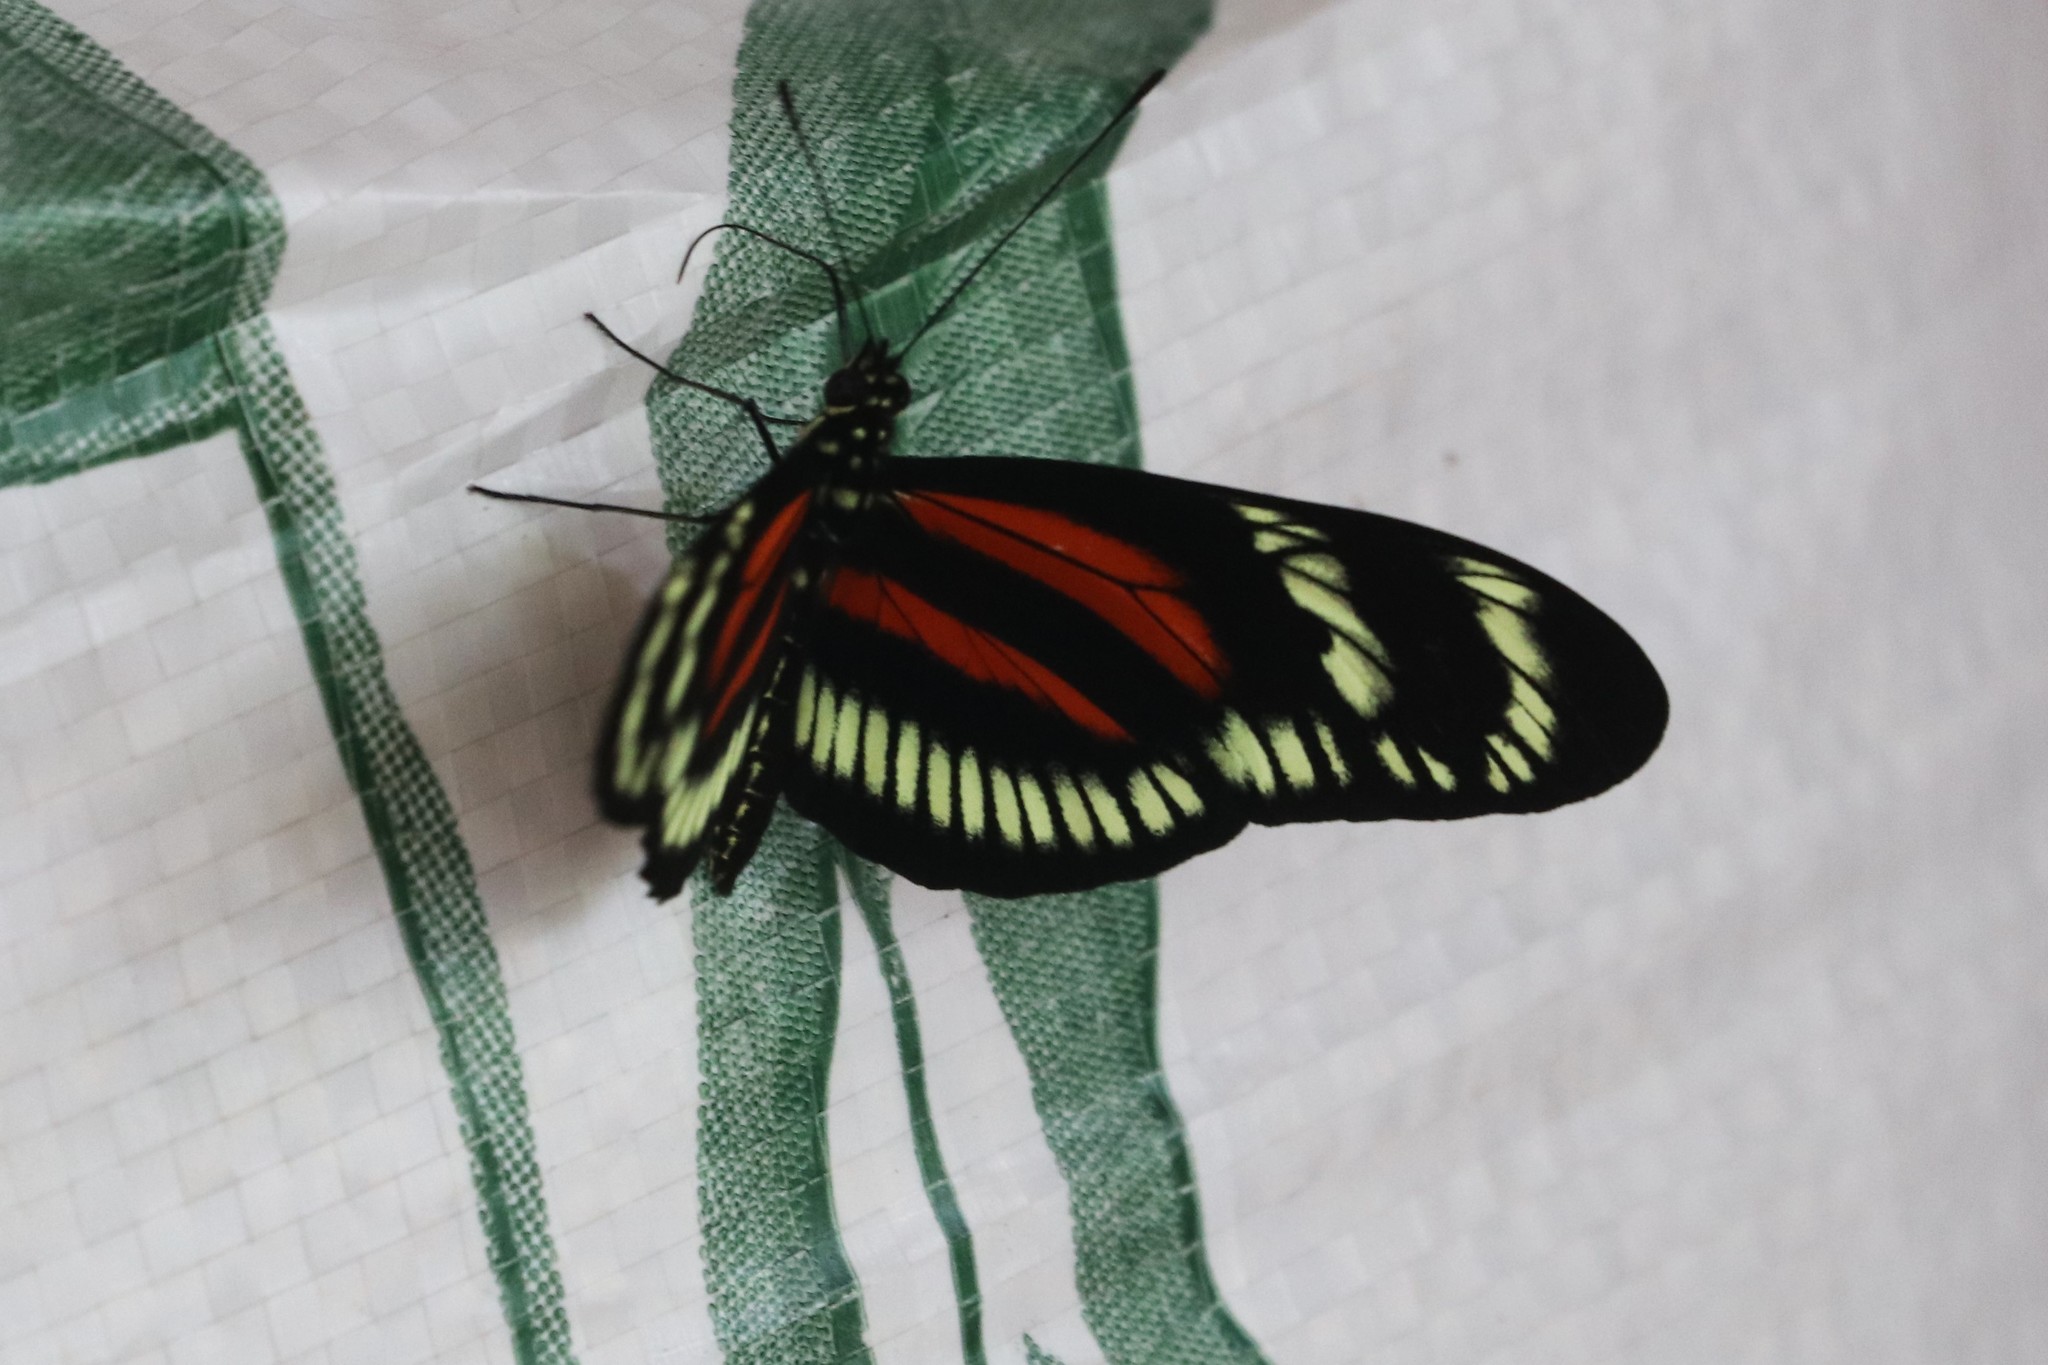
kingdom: Animalia
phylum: Arthropoda
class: Insecta
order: Lepidoptera
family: Nymphalidae
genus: Heliconius
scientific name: Heliconius hecalesia
